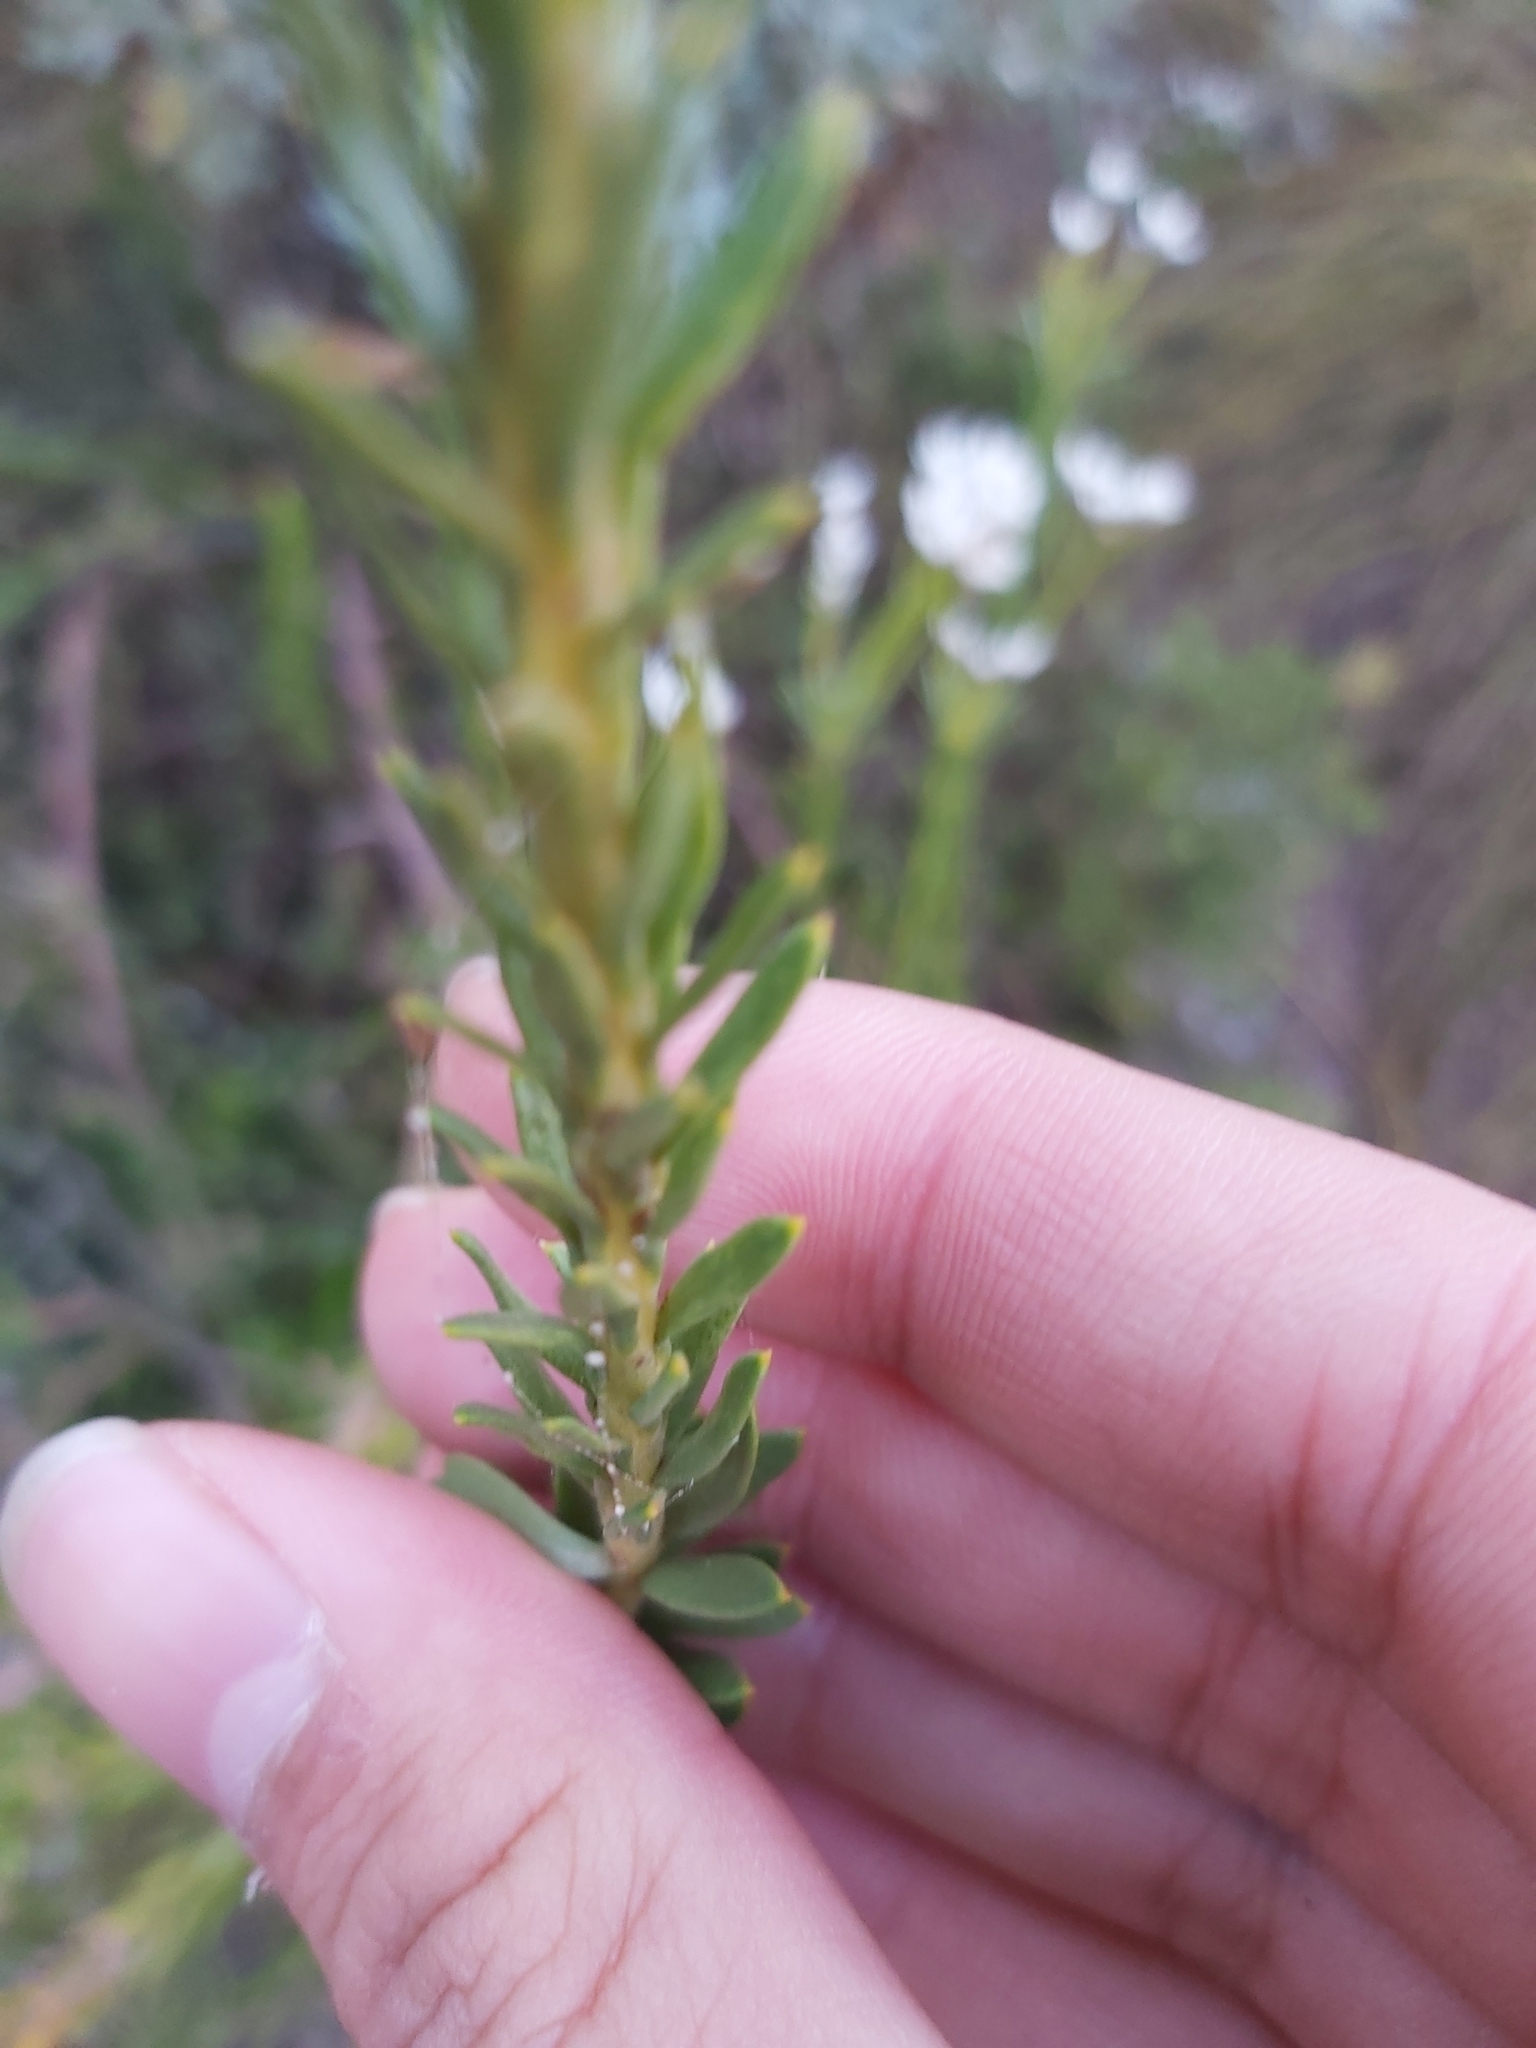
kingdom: Plantae
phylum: Tracheophyta
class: Magnoliopsida
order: Proteales
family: Proteaceae
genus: Conospermum
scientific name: Conospermum ellipticum
